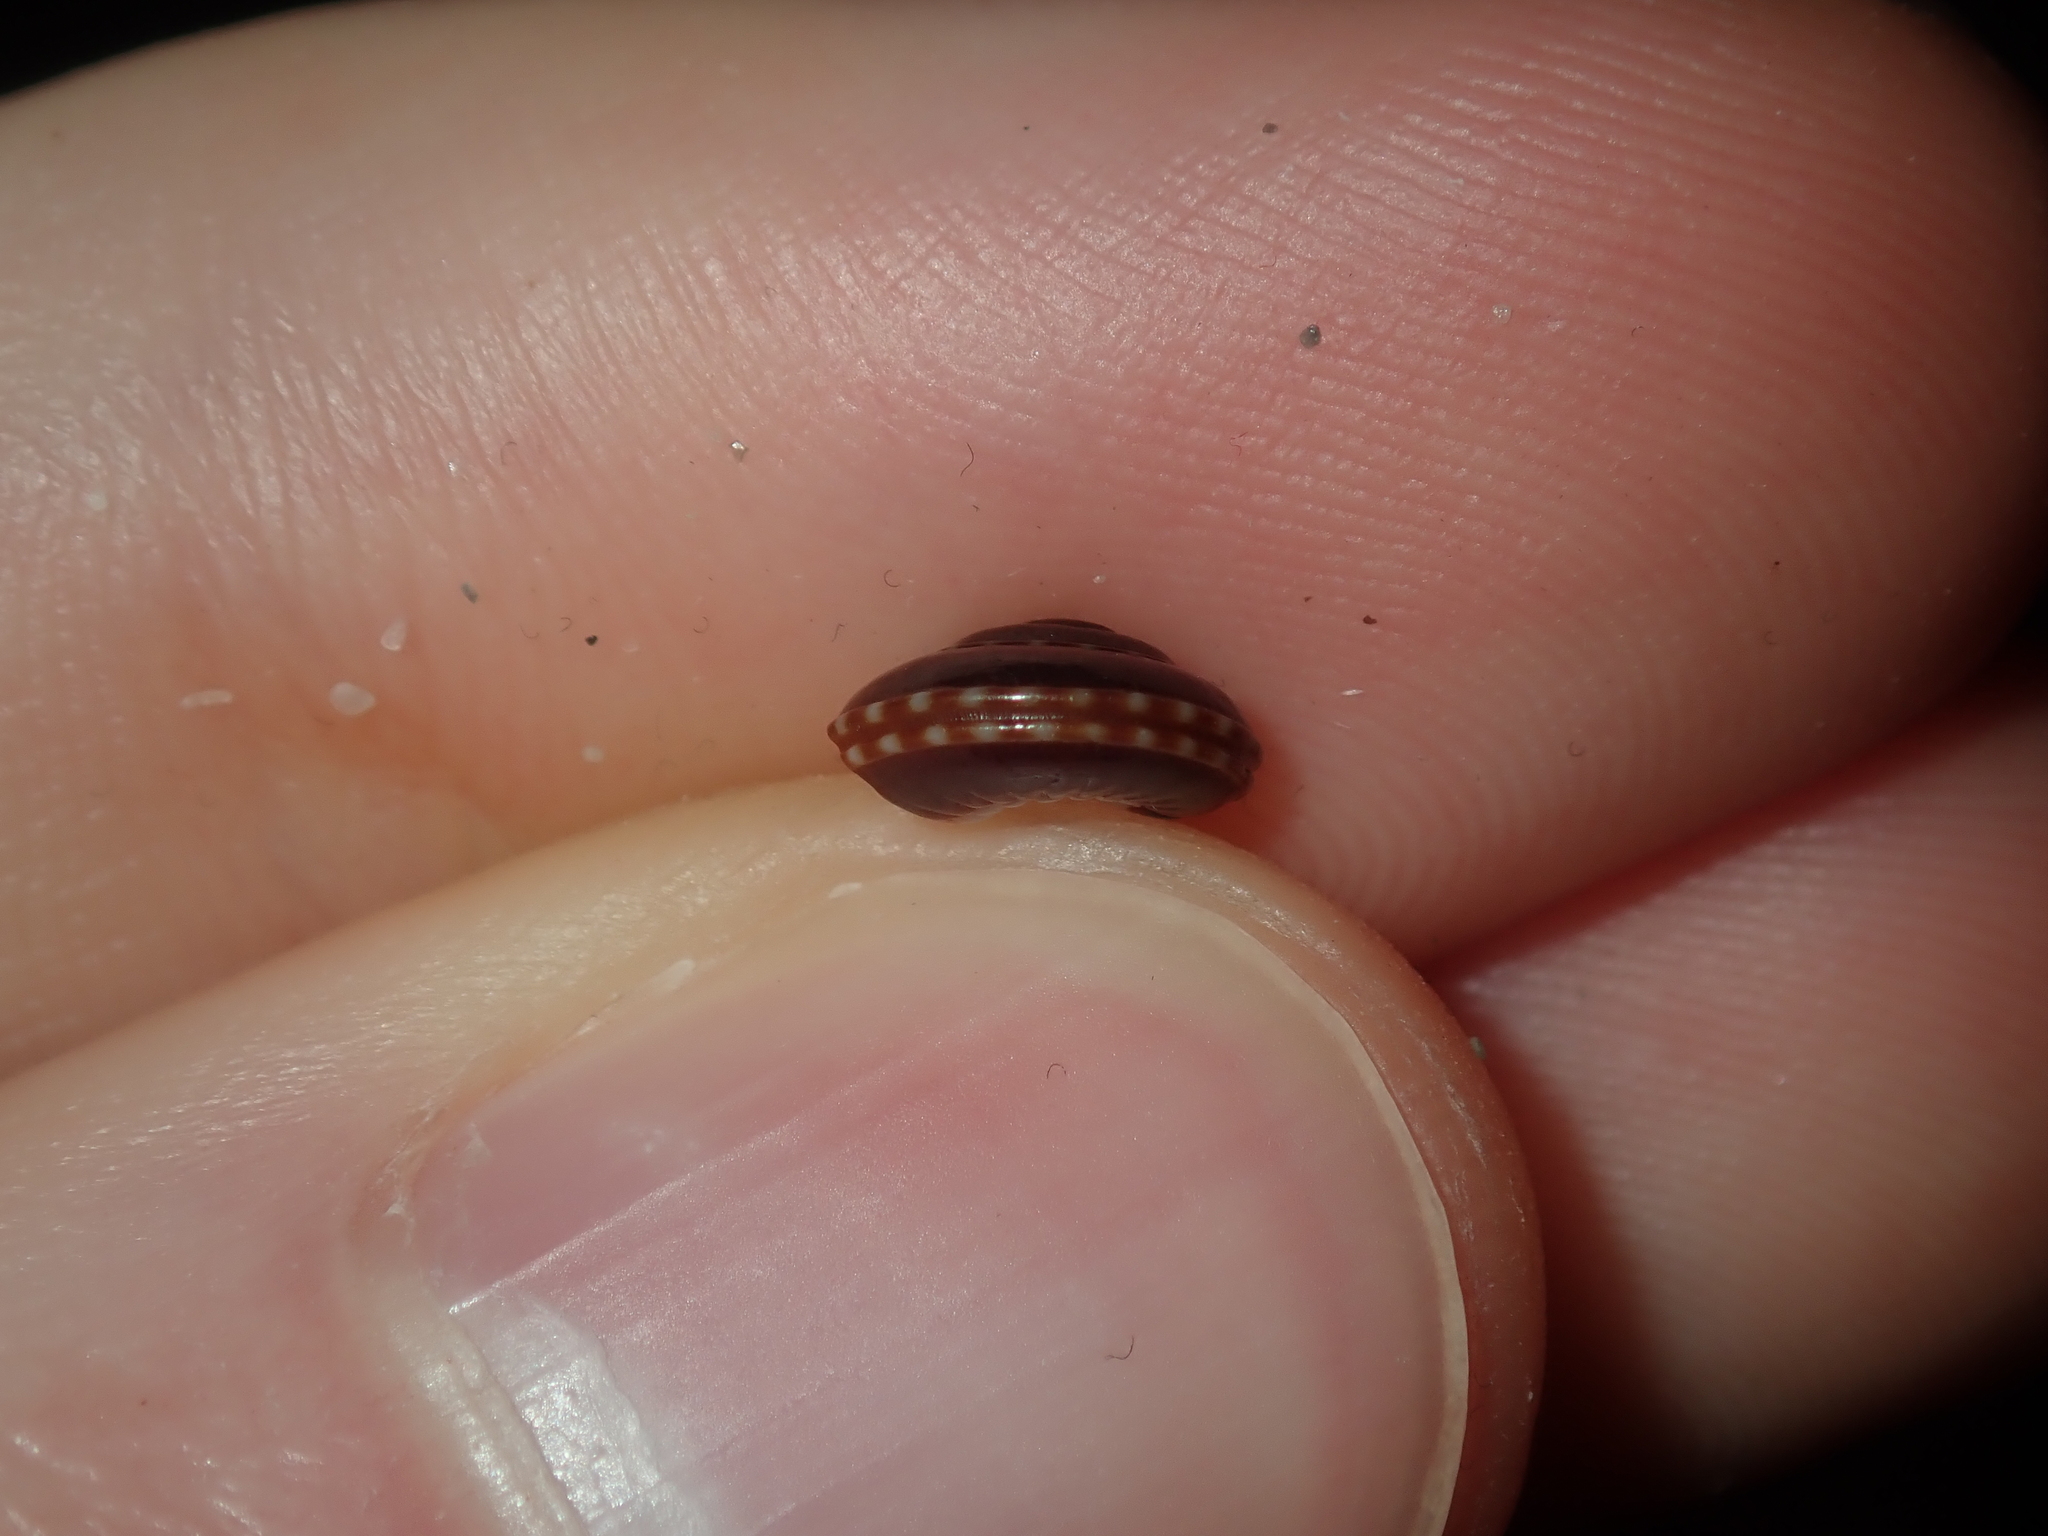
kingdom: Animalia
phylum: Mollusca
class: Gastropoda
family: Architectonicidae
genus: Philippia
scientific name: Philippia lutea
